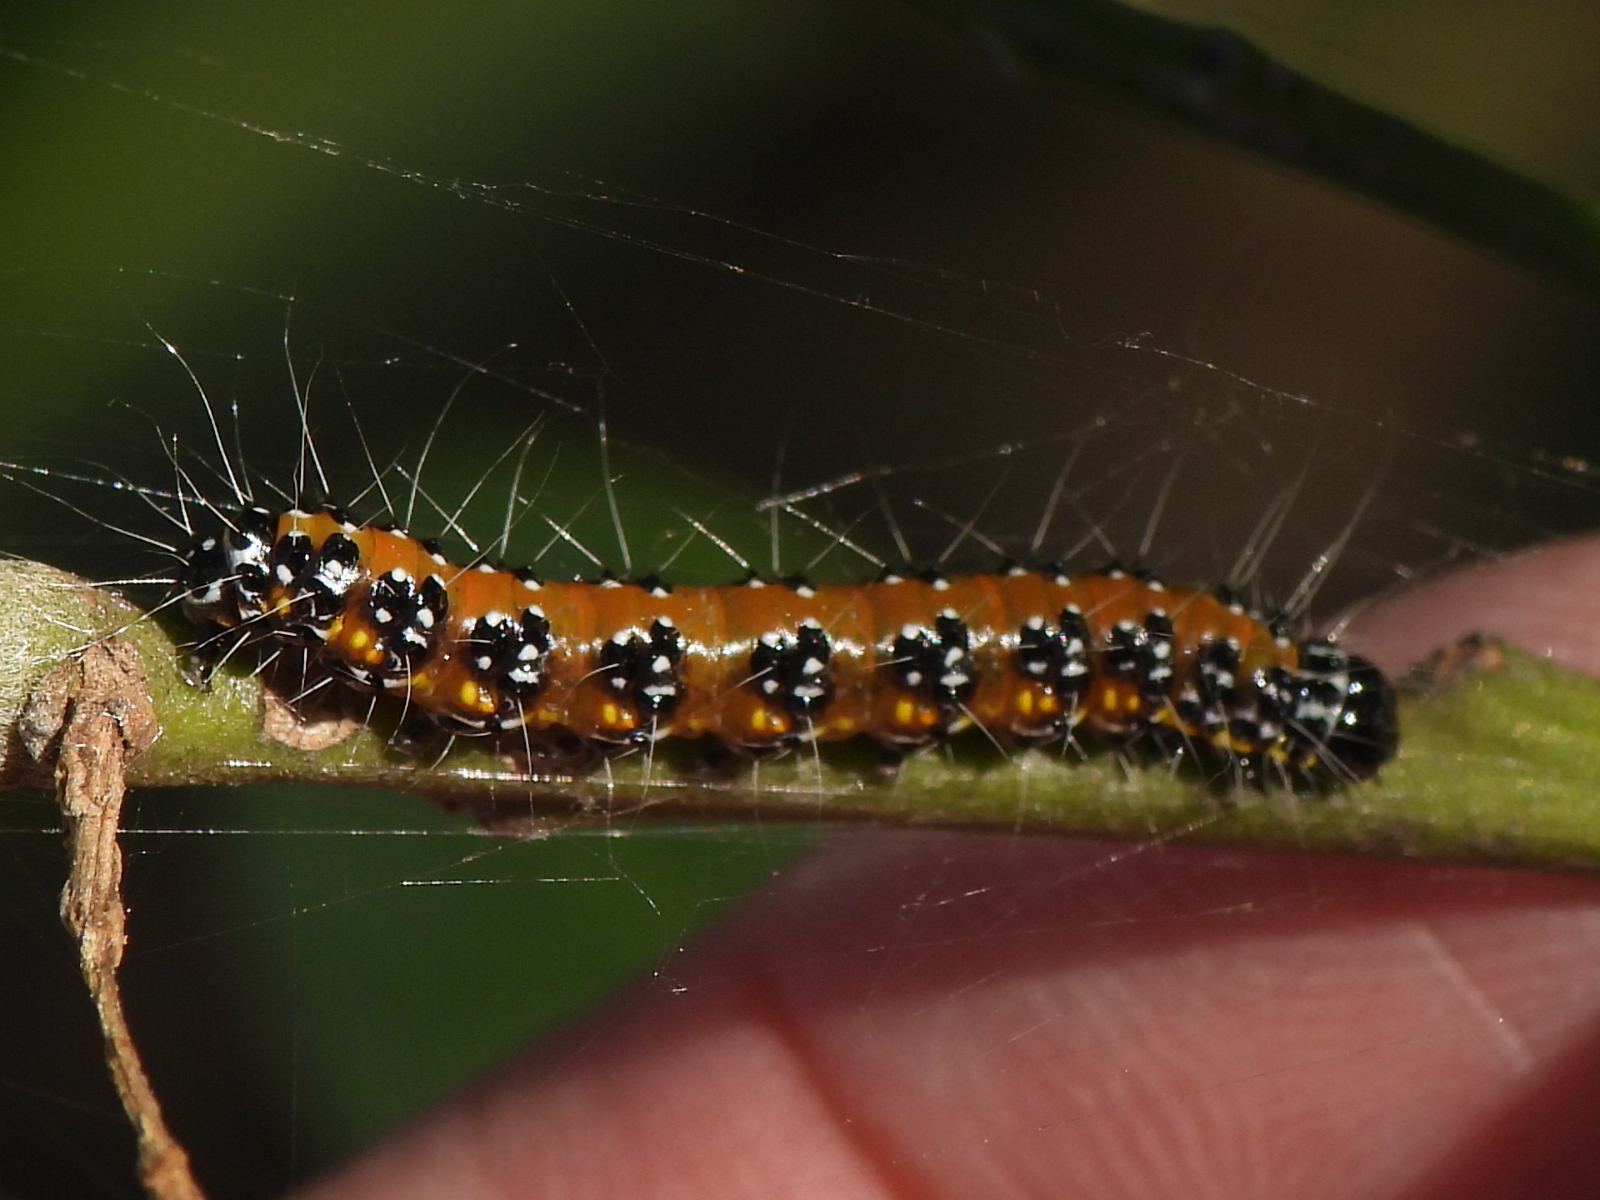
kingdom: Animalia
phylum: Arthropoda
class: Insecta
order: Lepidoptera
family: Crambidae
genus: Uresiphita
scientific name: Uresiphita reversalis
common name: Genista broom moth
